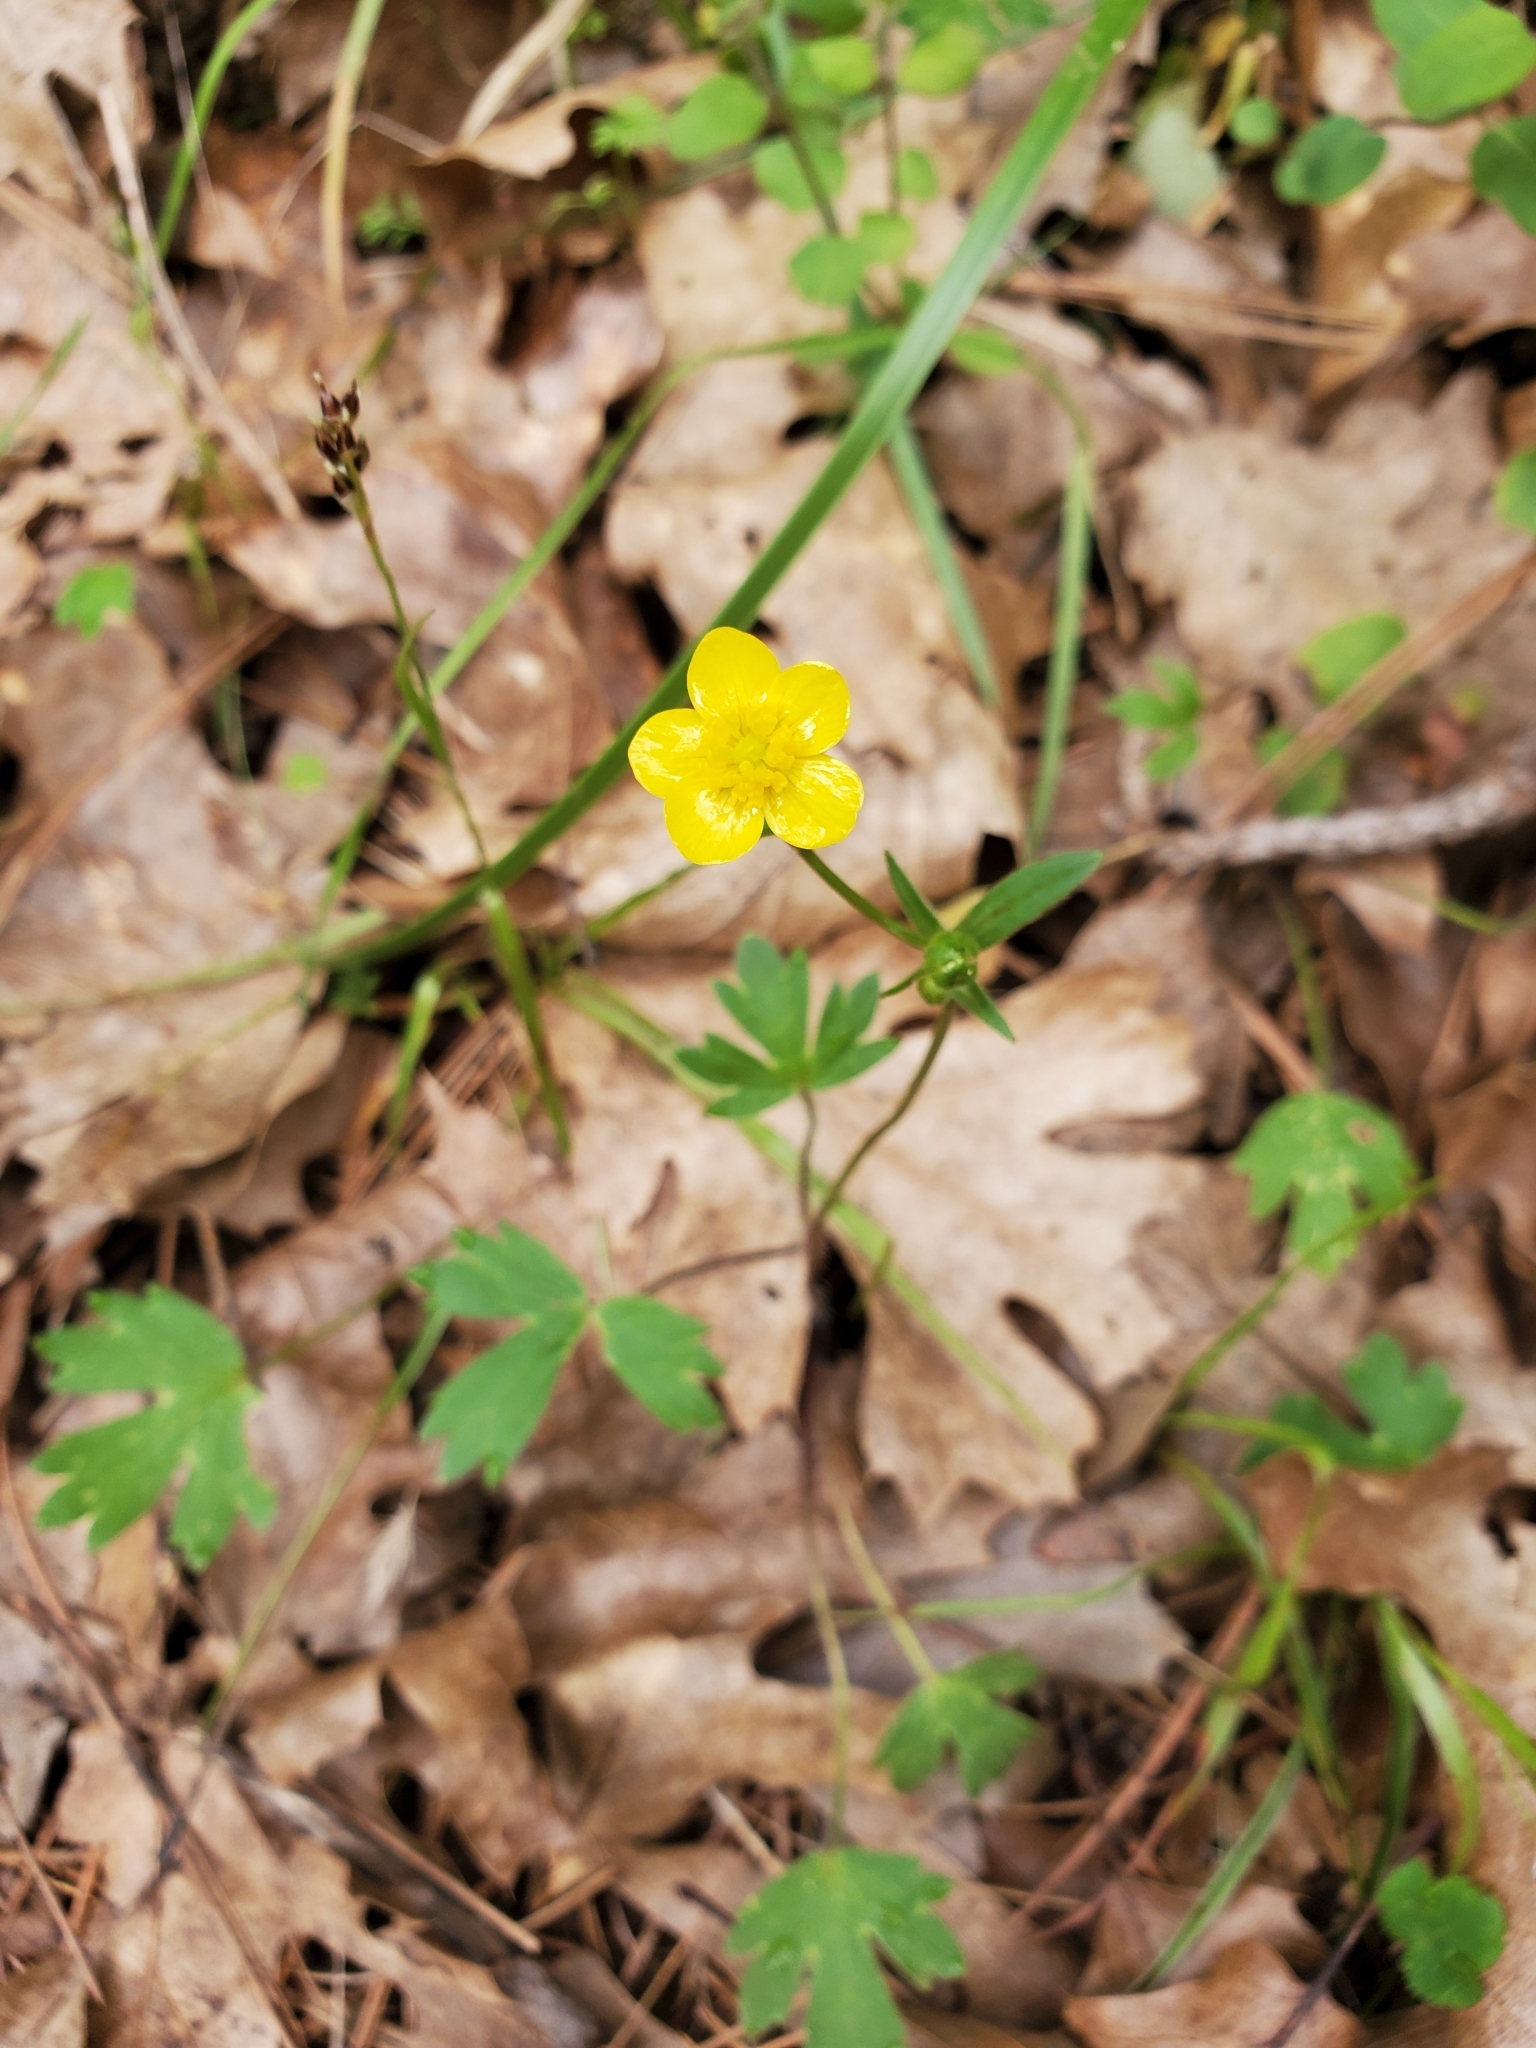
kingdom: Plantae
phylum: Tracheophyta
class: Magnoliopsida
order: Ranunculales
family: Ranunculaceae
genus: Ranunculus
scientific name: Ranunculus occidentalis
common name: Western buttercup
